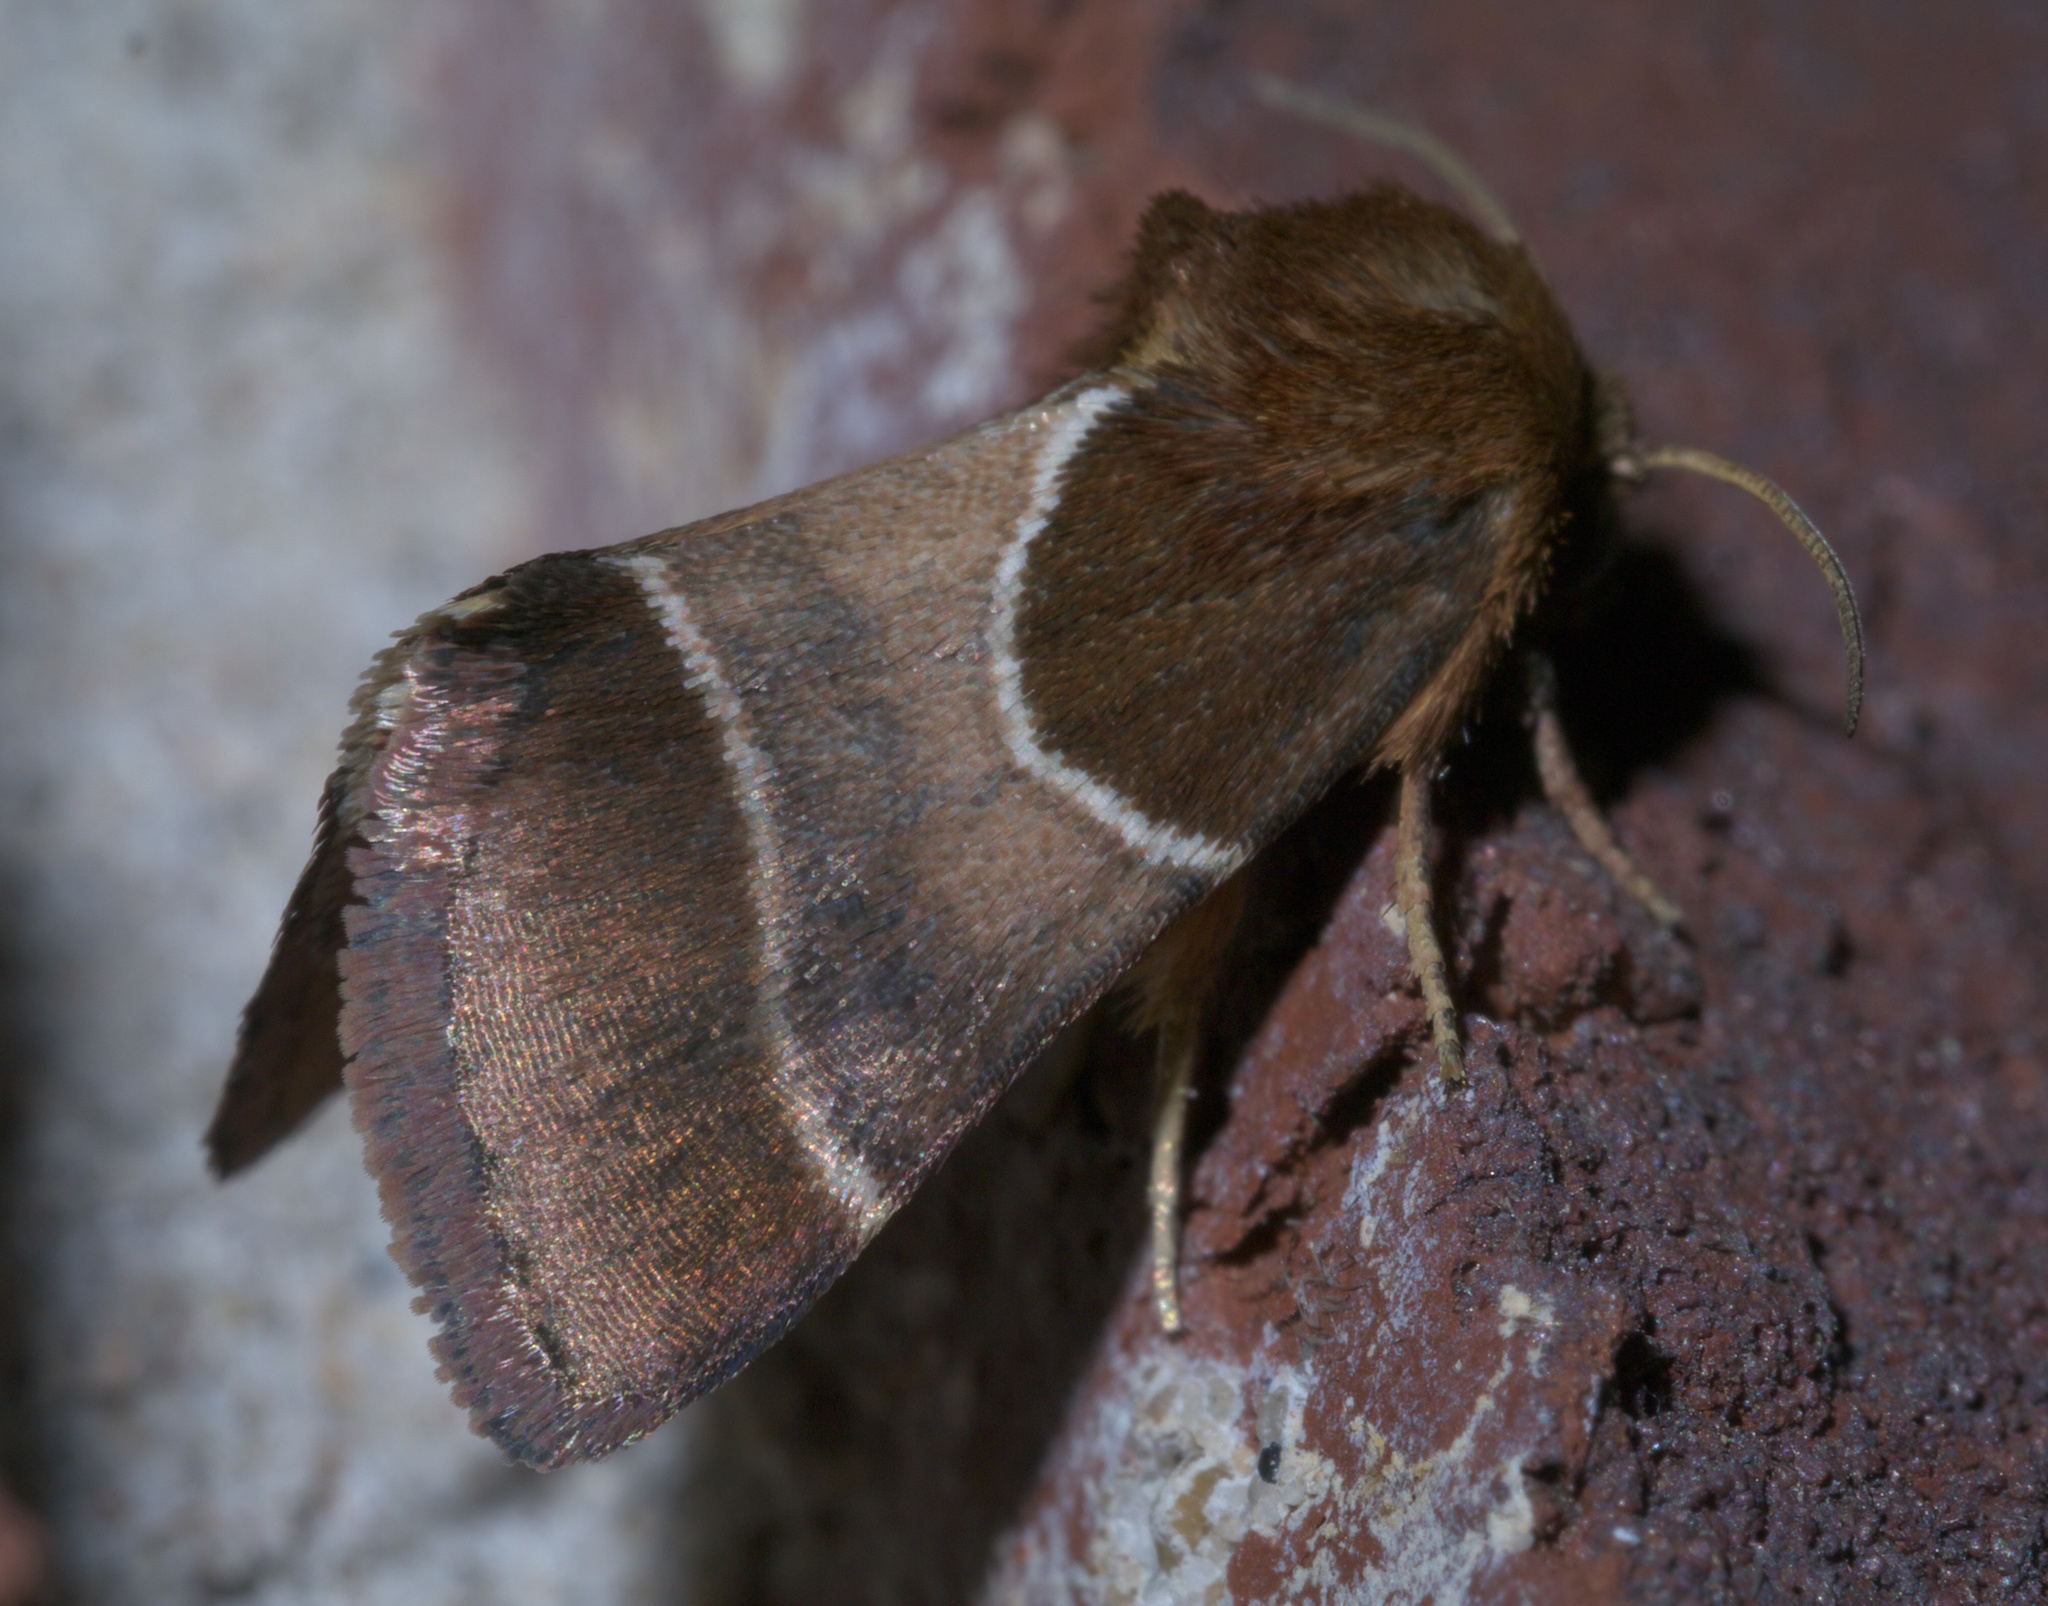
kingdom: Animalia
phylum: Arthropoda
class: Insecta
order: Lepidoptera
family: Noctuidae
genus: Schinia
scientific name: Schinia arcigera
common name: Arcigera flower moth
